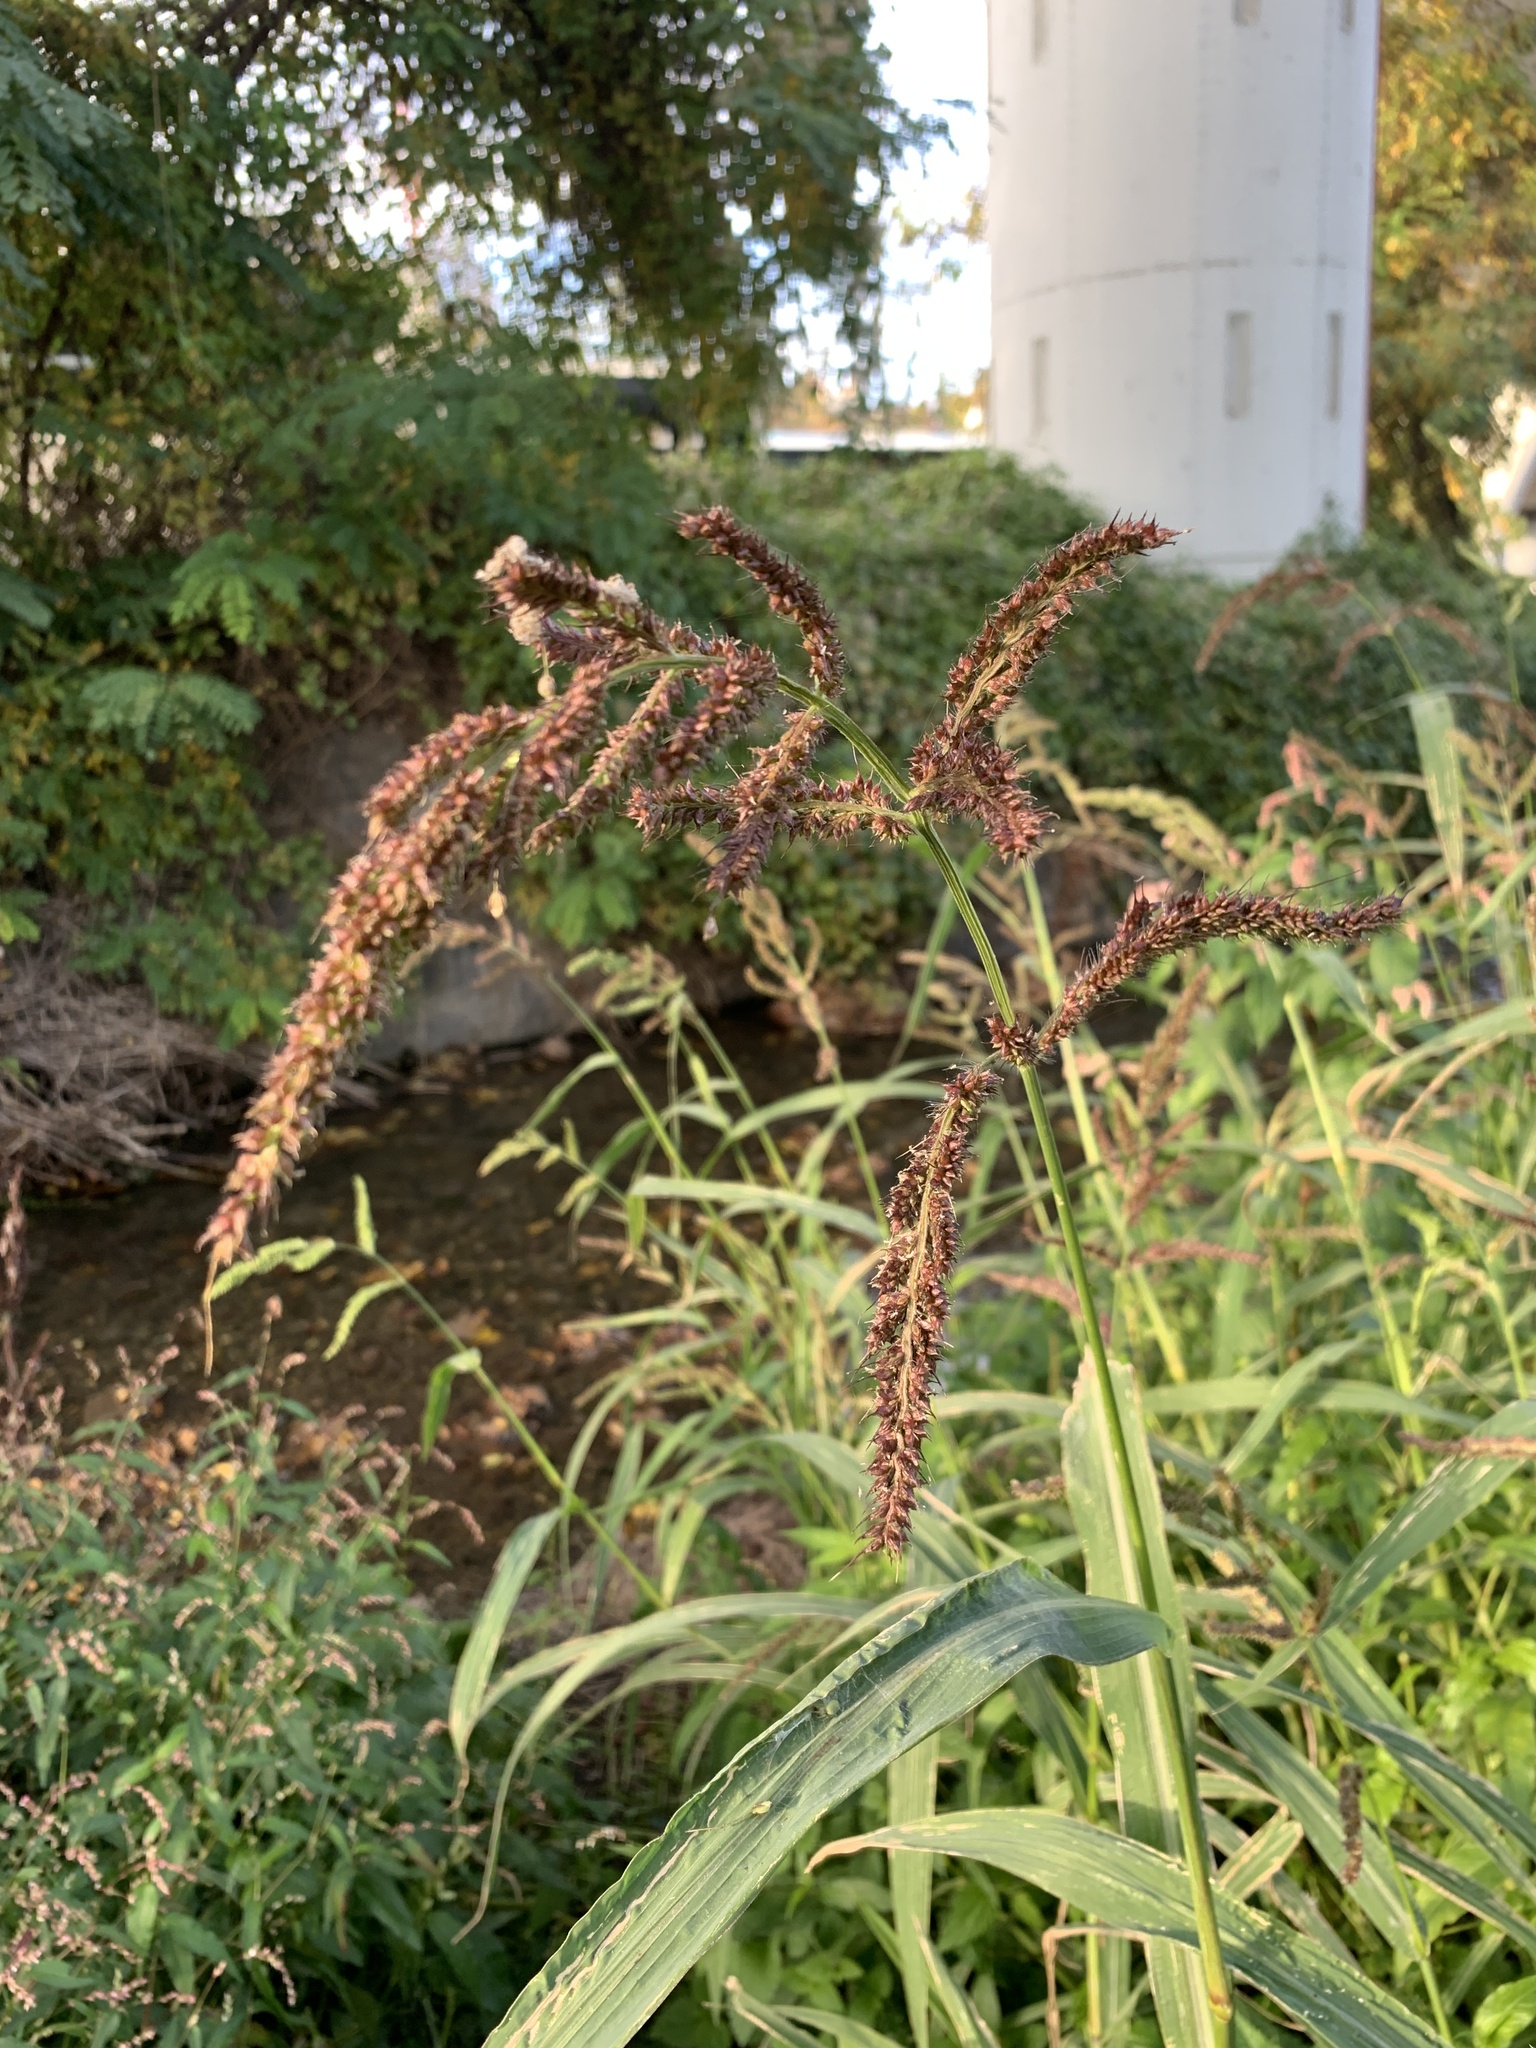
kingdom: Plantae
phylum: Tracheophyta
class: Liliopsida
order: Poales
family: Poaceae
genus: Echinochloa
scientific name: Echinochloa crus-galli
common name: Cockspur
